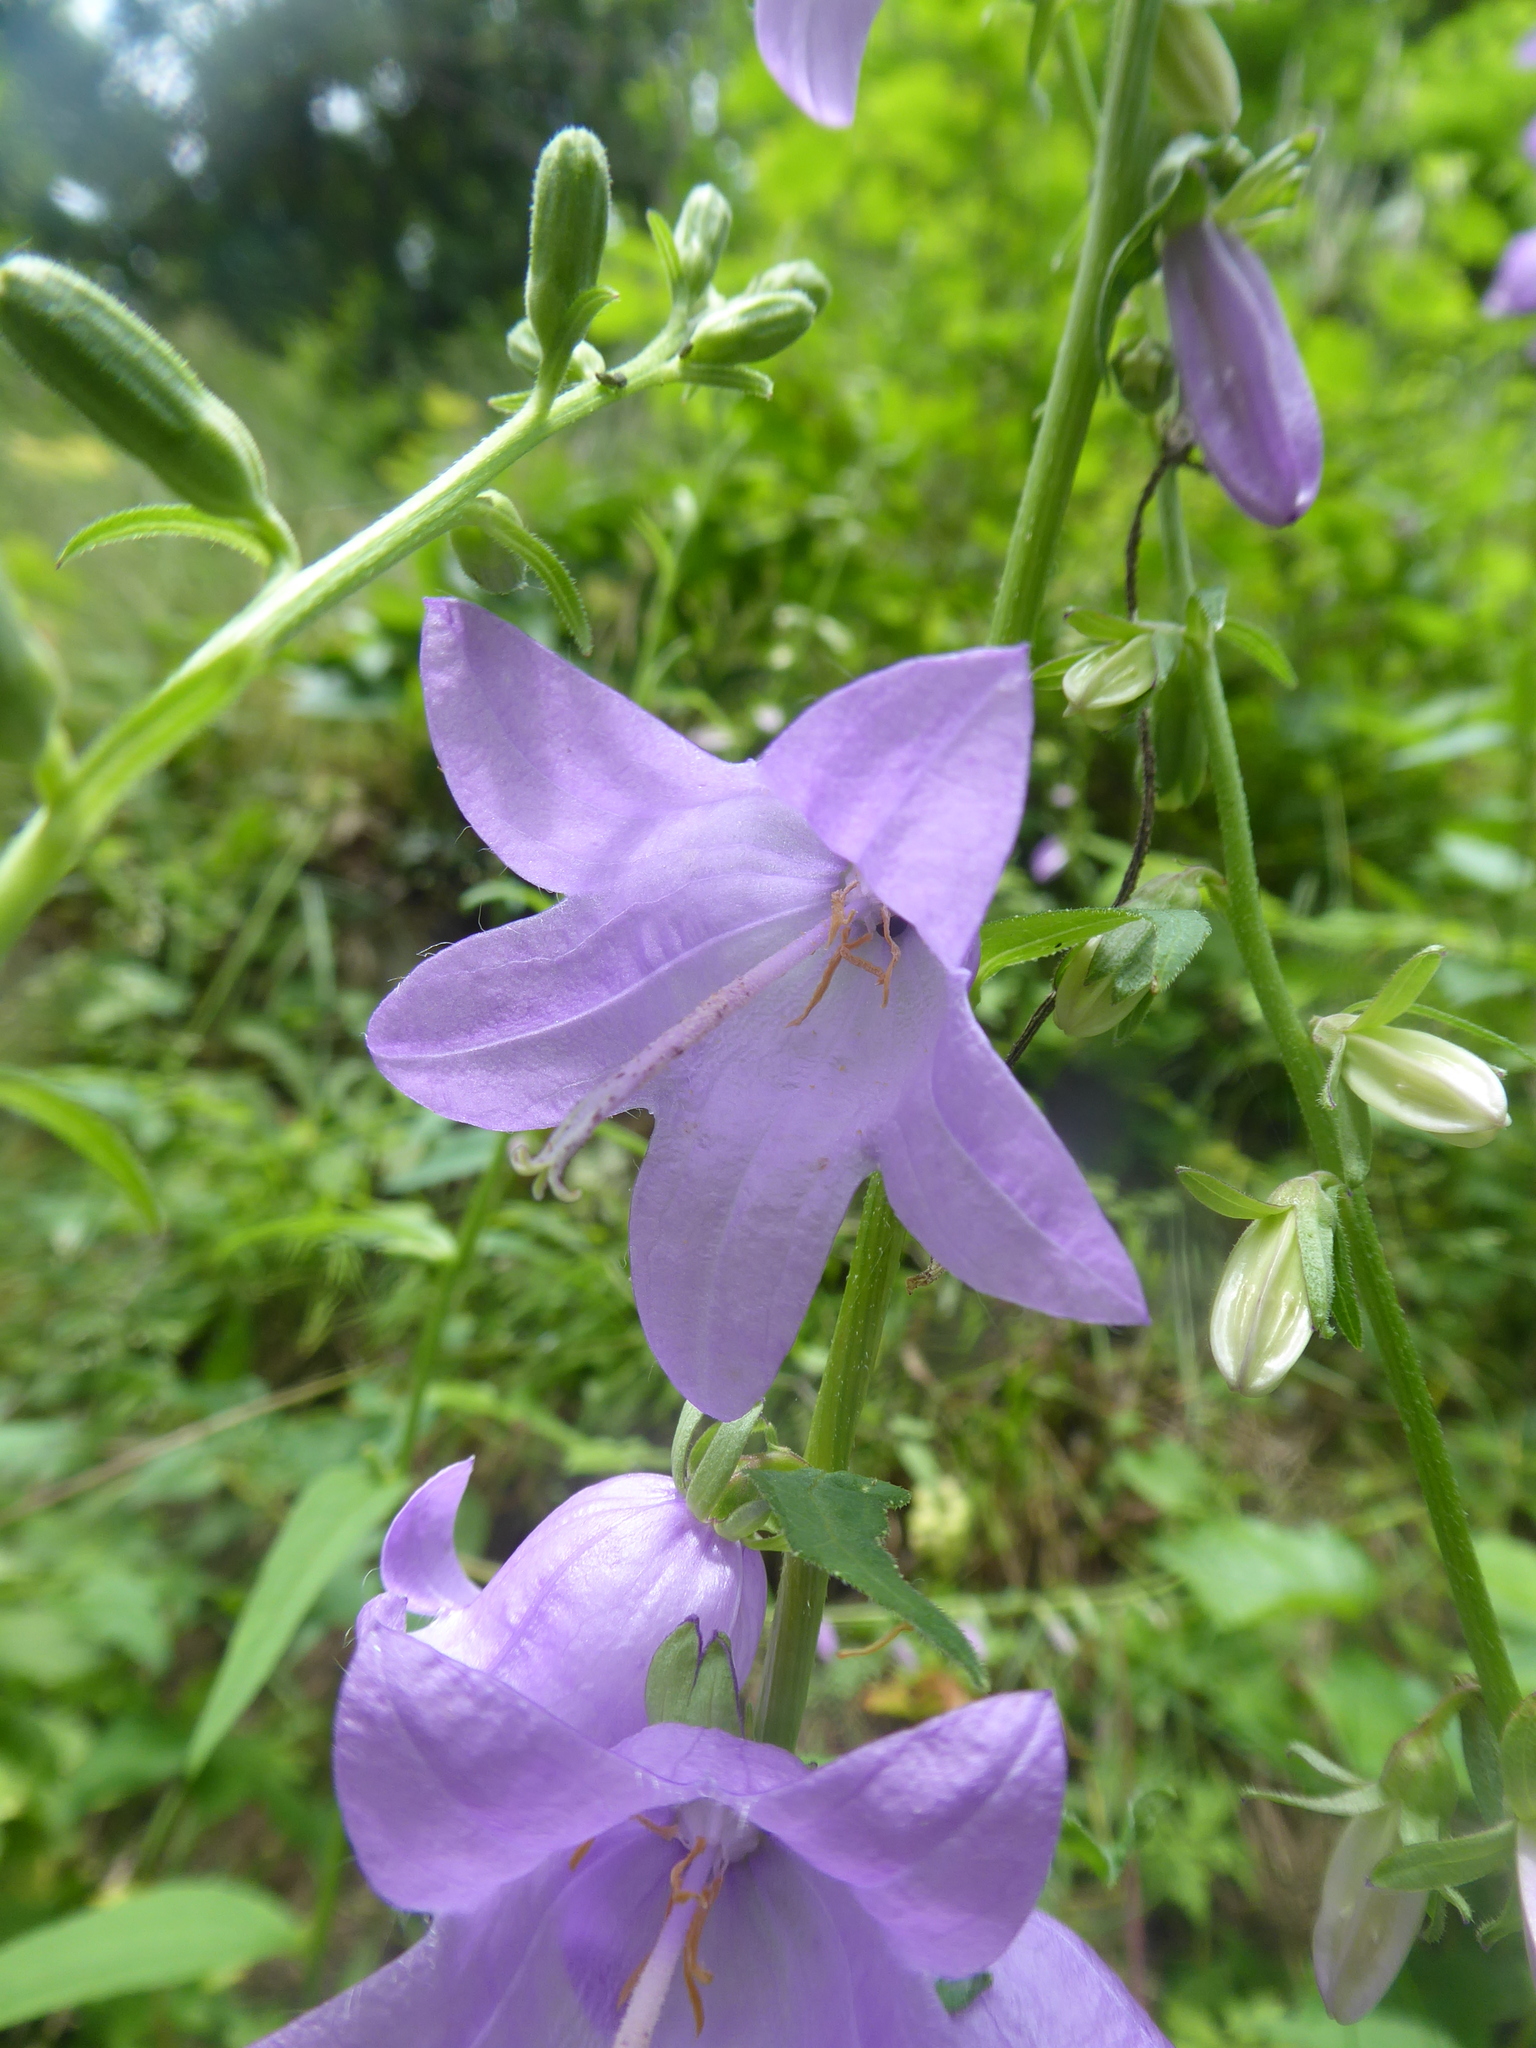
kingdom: Plantae
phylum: Tracheophyta
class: Magnoliopsida
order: Asterales
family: Campanulaceae
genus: Campanula
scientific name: Campanula rapunculoides
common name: Creeping bellflower
